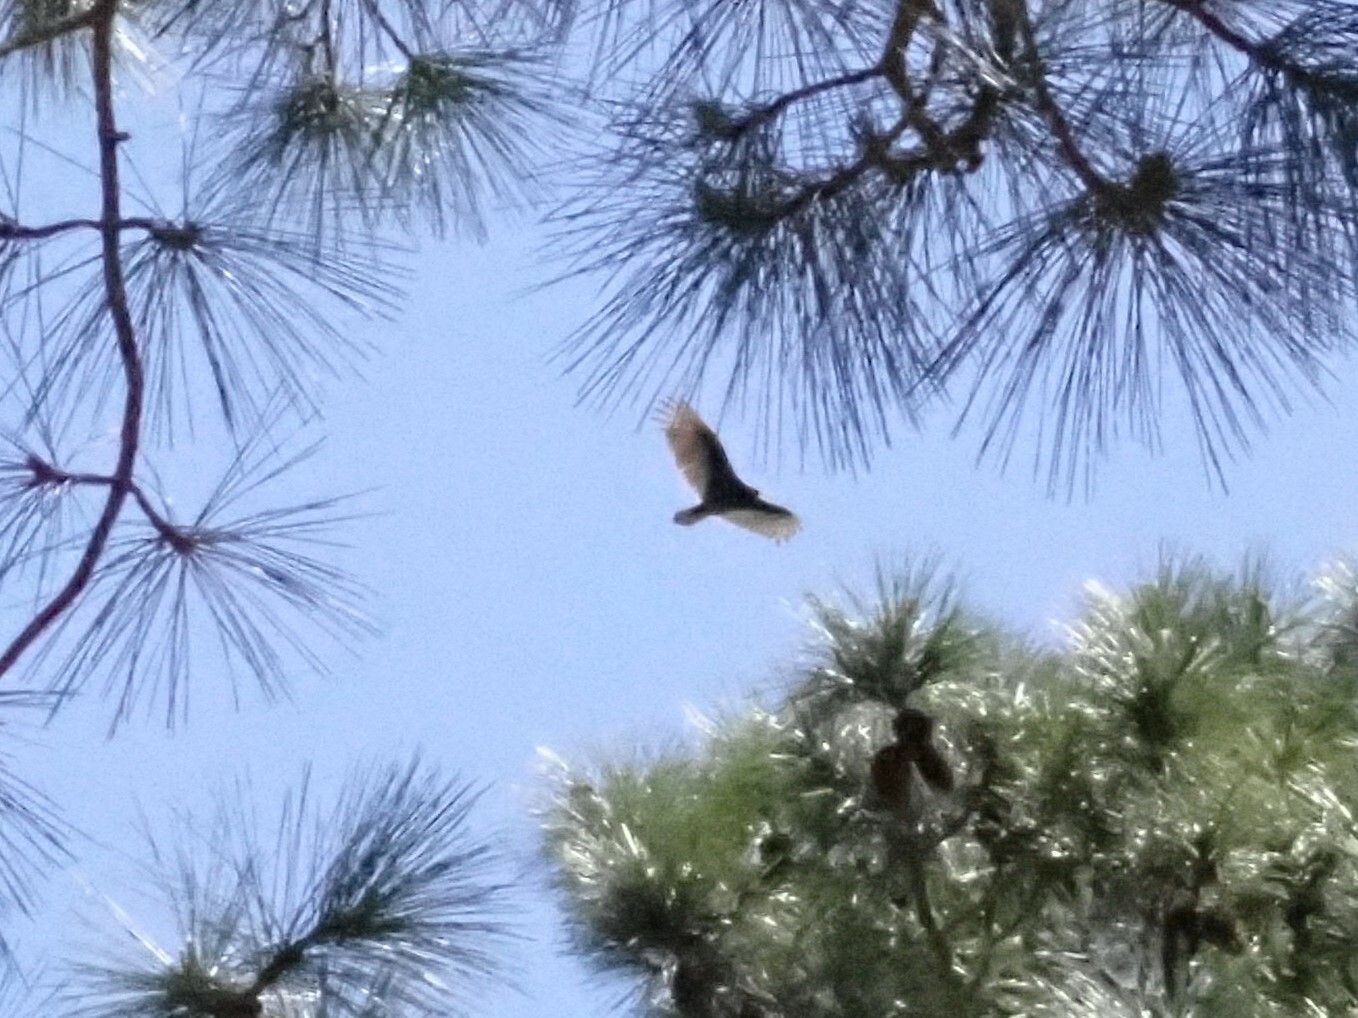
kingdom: Animalia
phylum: Chordata
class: Aves
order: Accipitriformes
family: Cathartidae
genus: Cathartes
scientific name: Cathartes aura
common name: Turkey vulture
